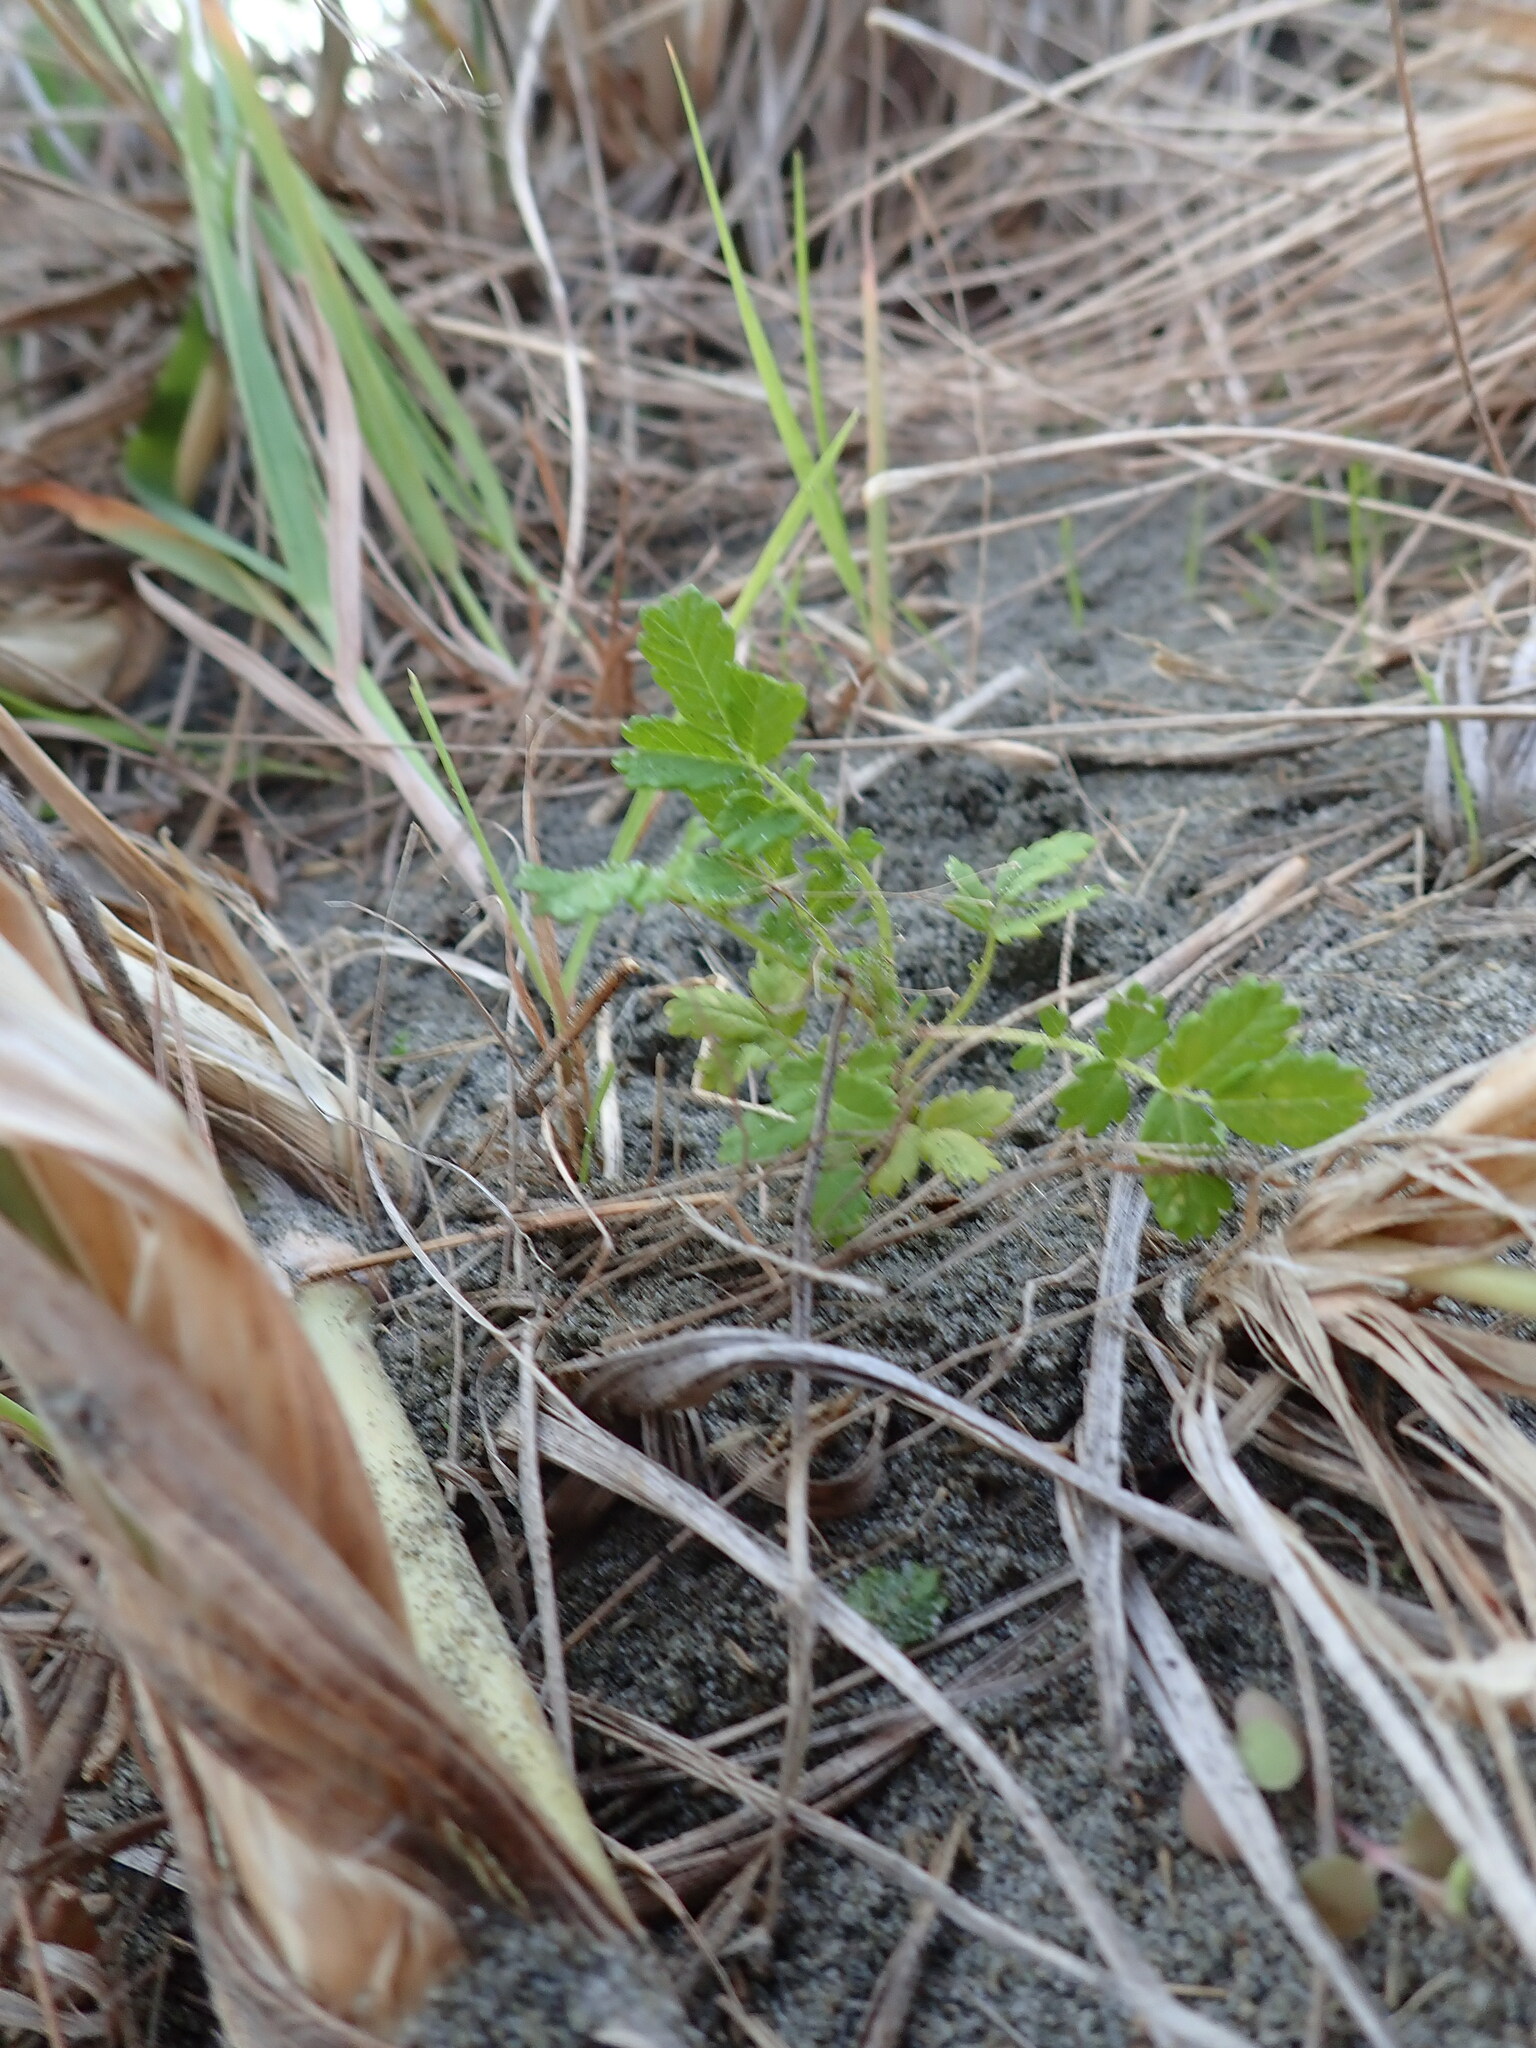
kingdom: Plantae
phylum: Tracheophyta
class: Magnoliopsida
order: Rosales
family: Rosaceae
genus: Acaena
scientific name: Acaena novae-zelandiae
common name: Pirri-pirri-bur
